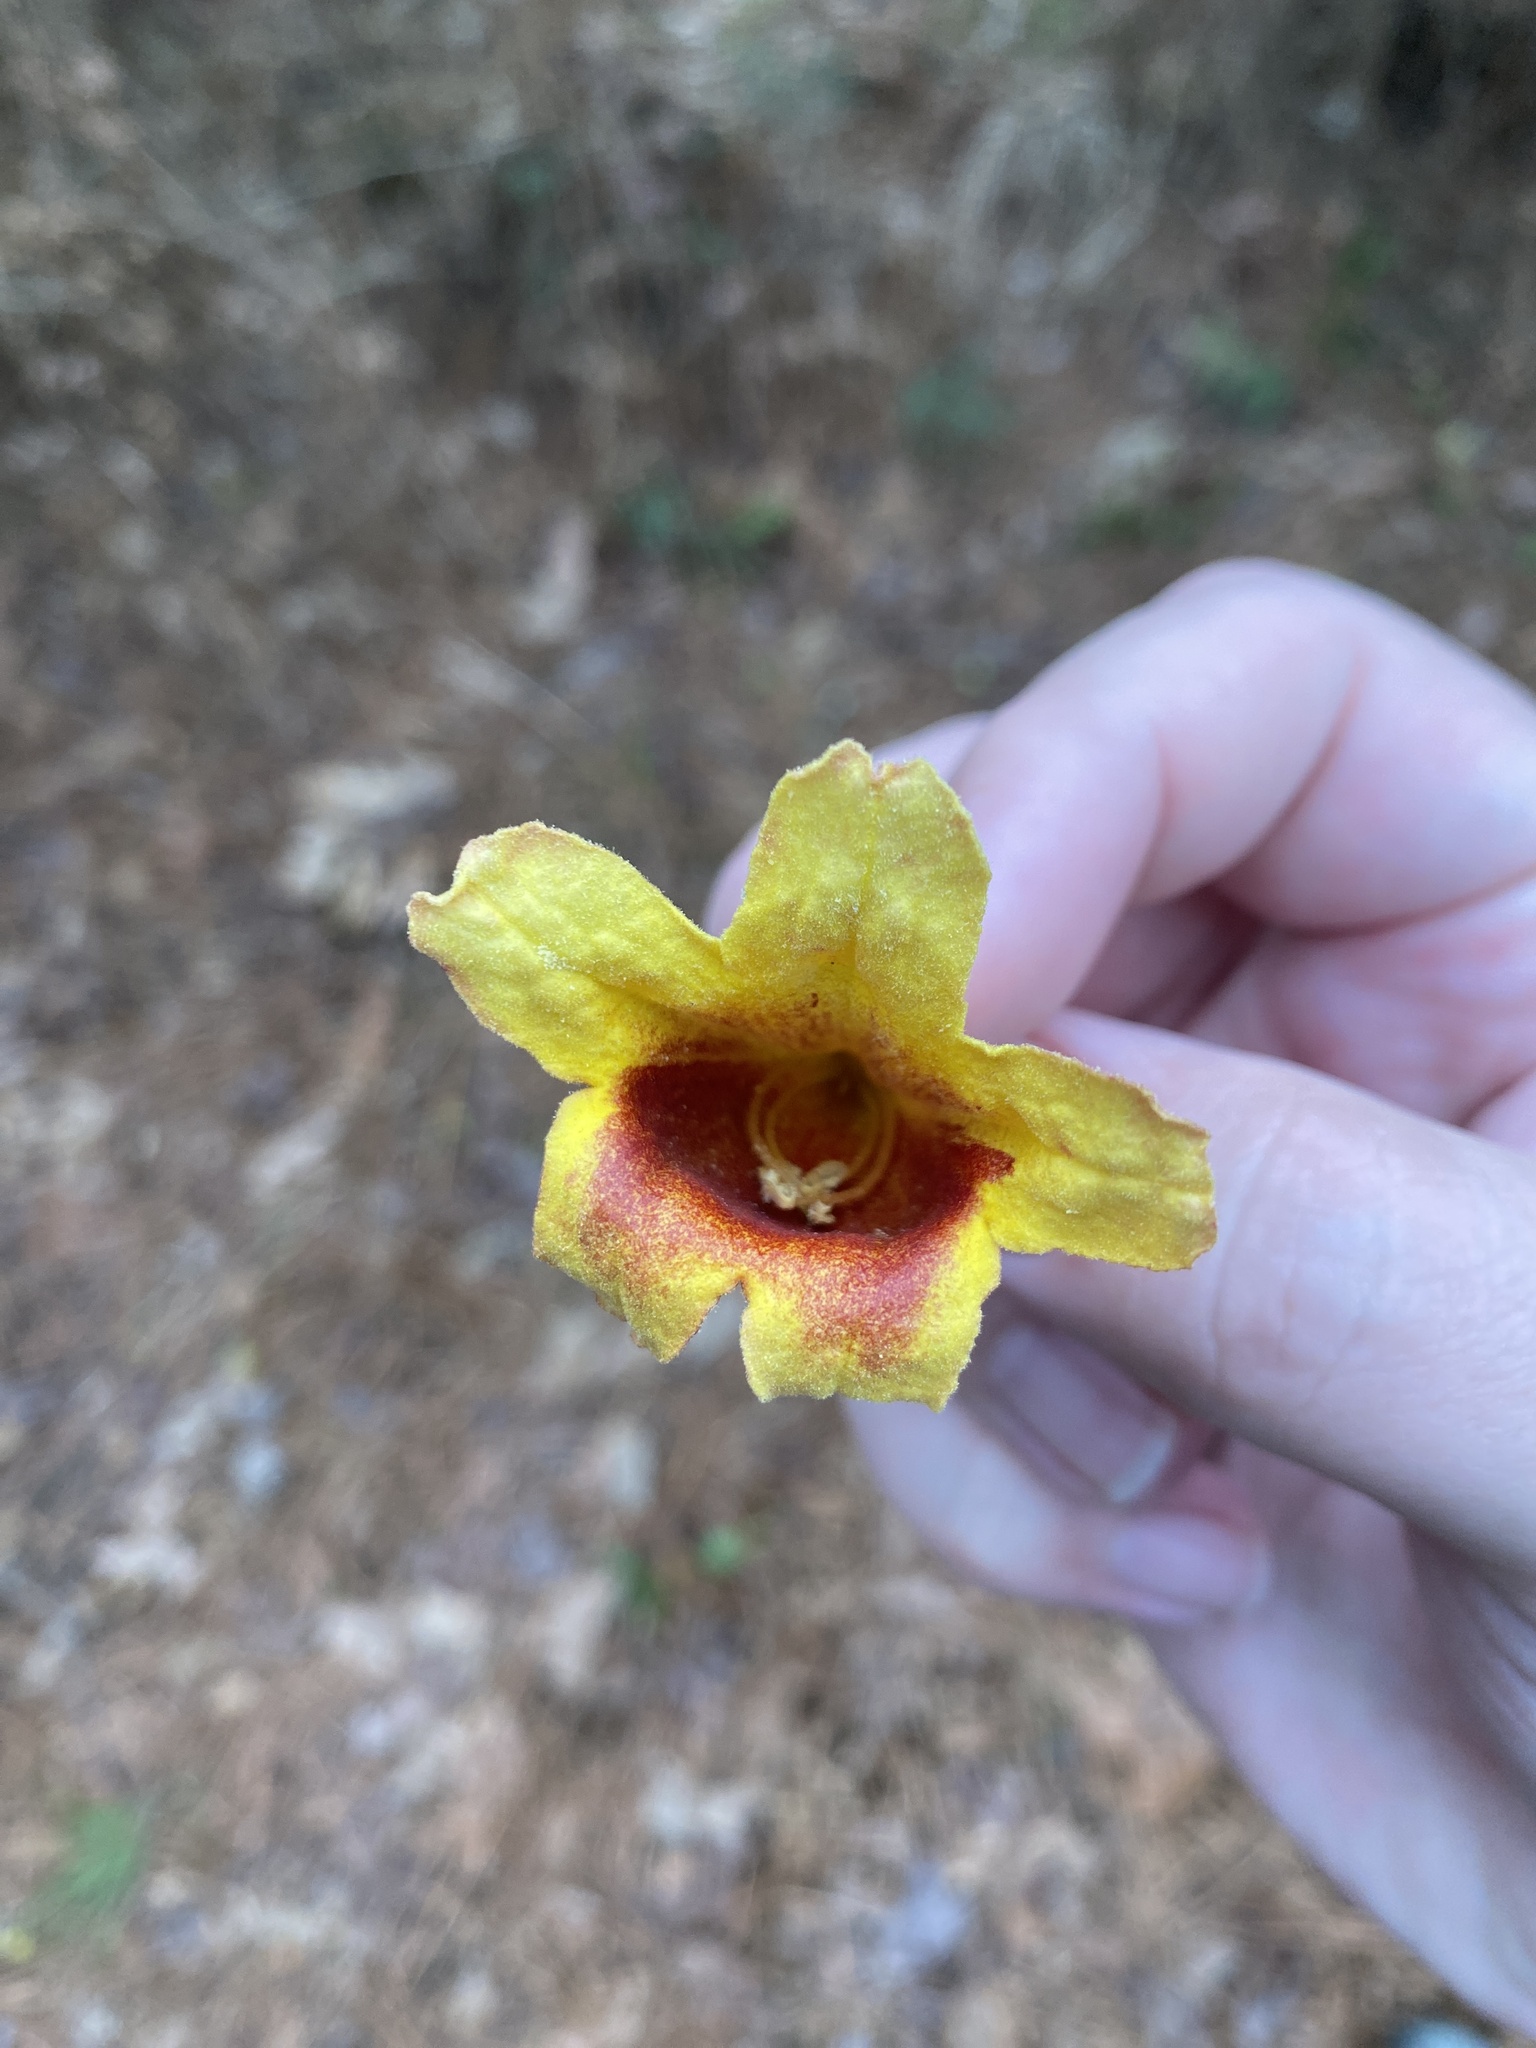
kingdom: Plantae
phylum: Tracheophyta
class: Magnoliopsida
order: Lamiales
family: Bignoniaceae
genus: Bignonia
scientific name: Bignonia capreolata
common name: Crossvine
